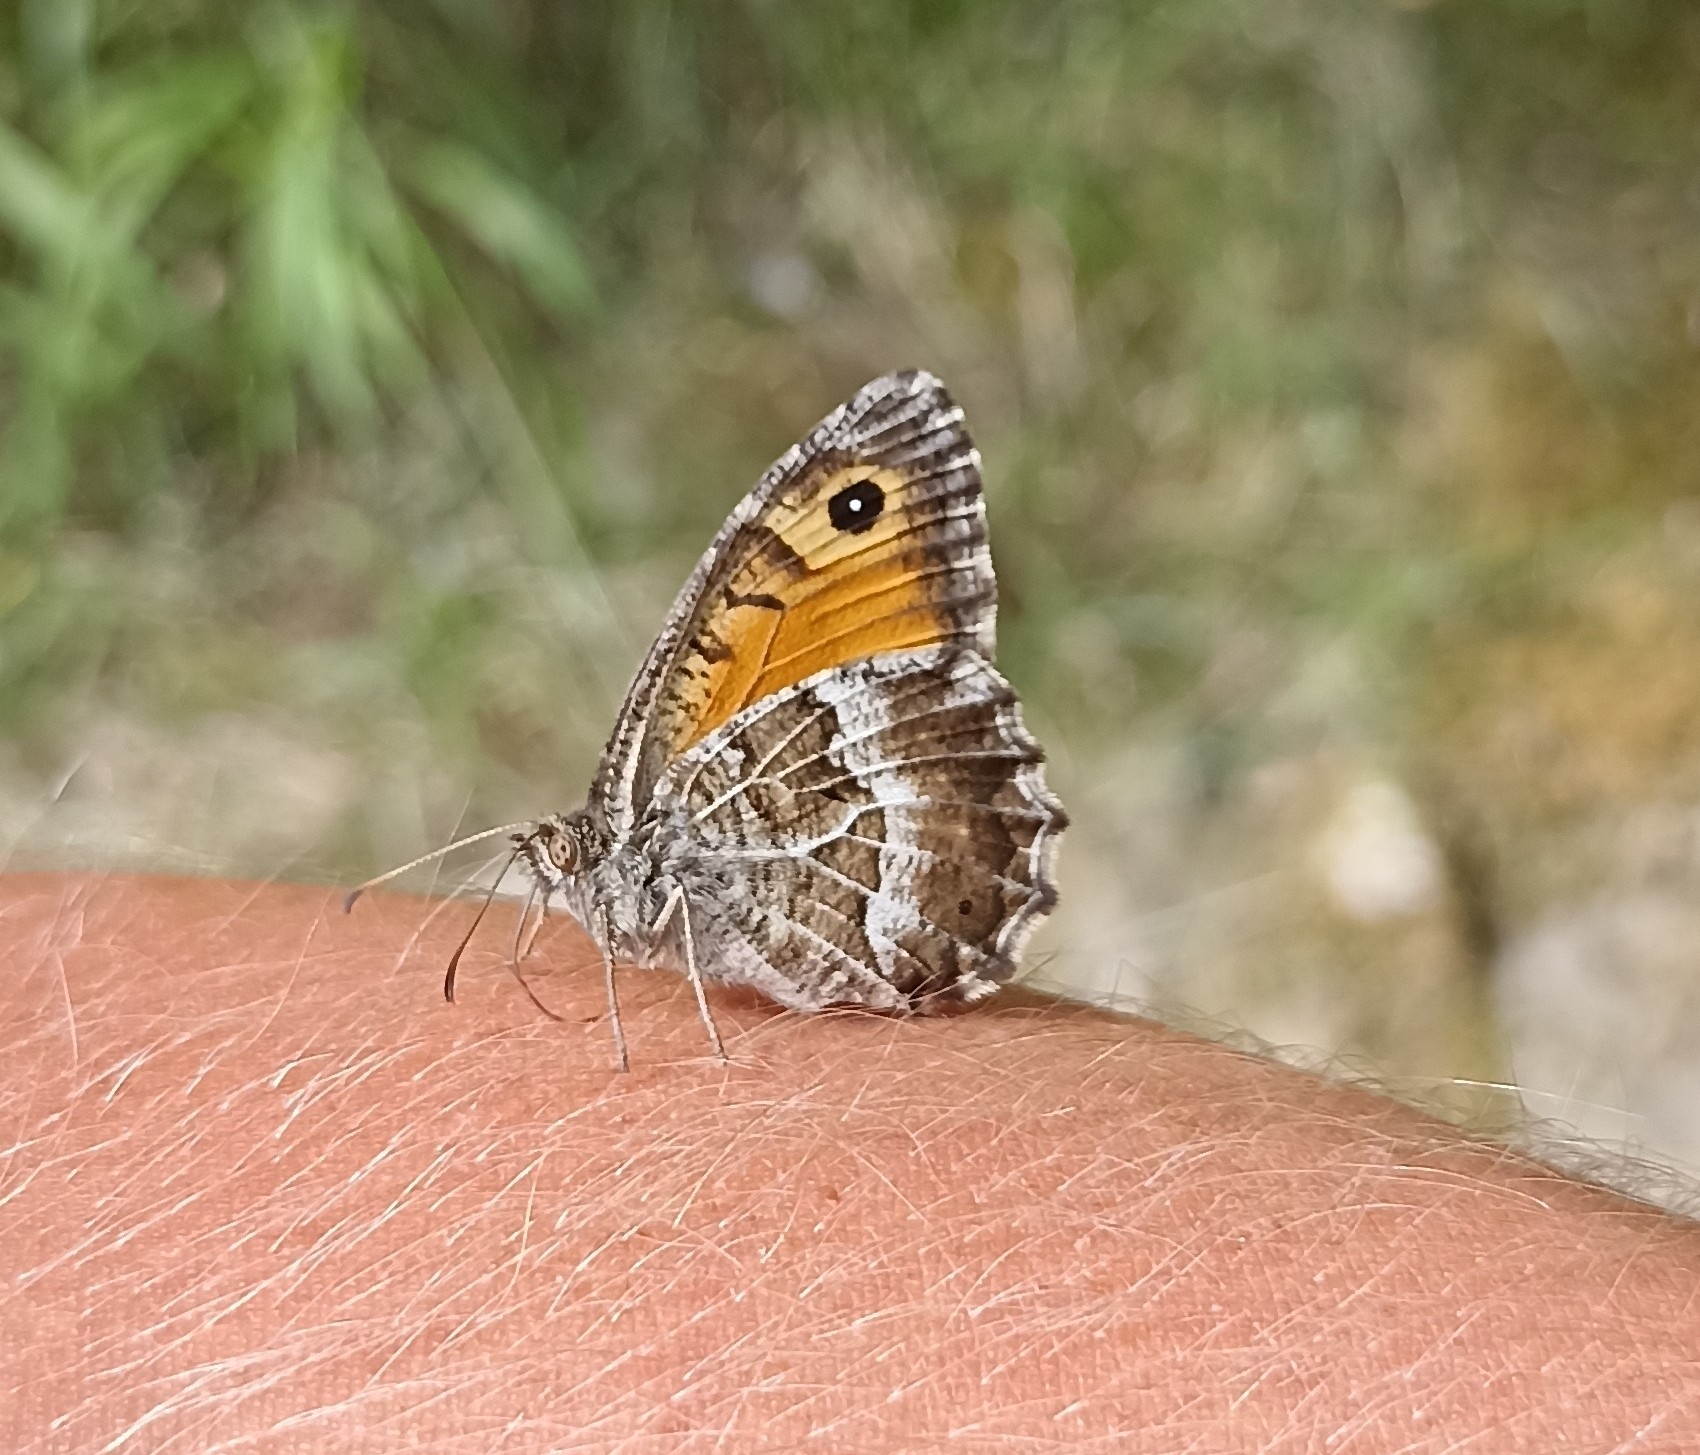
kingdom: Animalia
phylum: Arthropoda
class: Insecta
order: Lepidoptera
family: Nymphalidae
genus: Arethusana
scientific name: Arethusana arethusa
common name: False grayling
